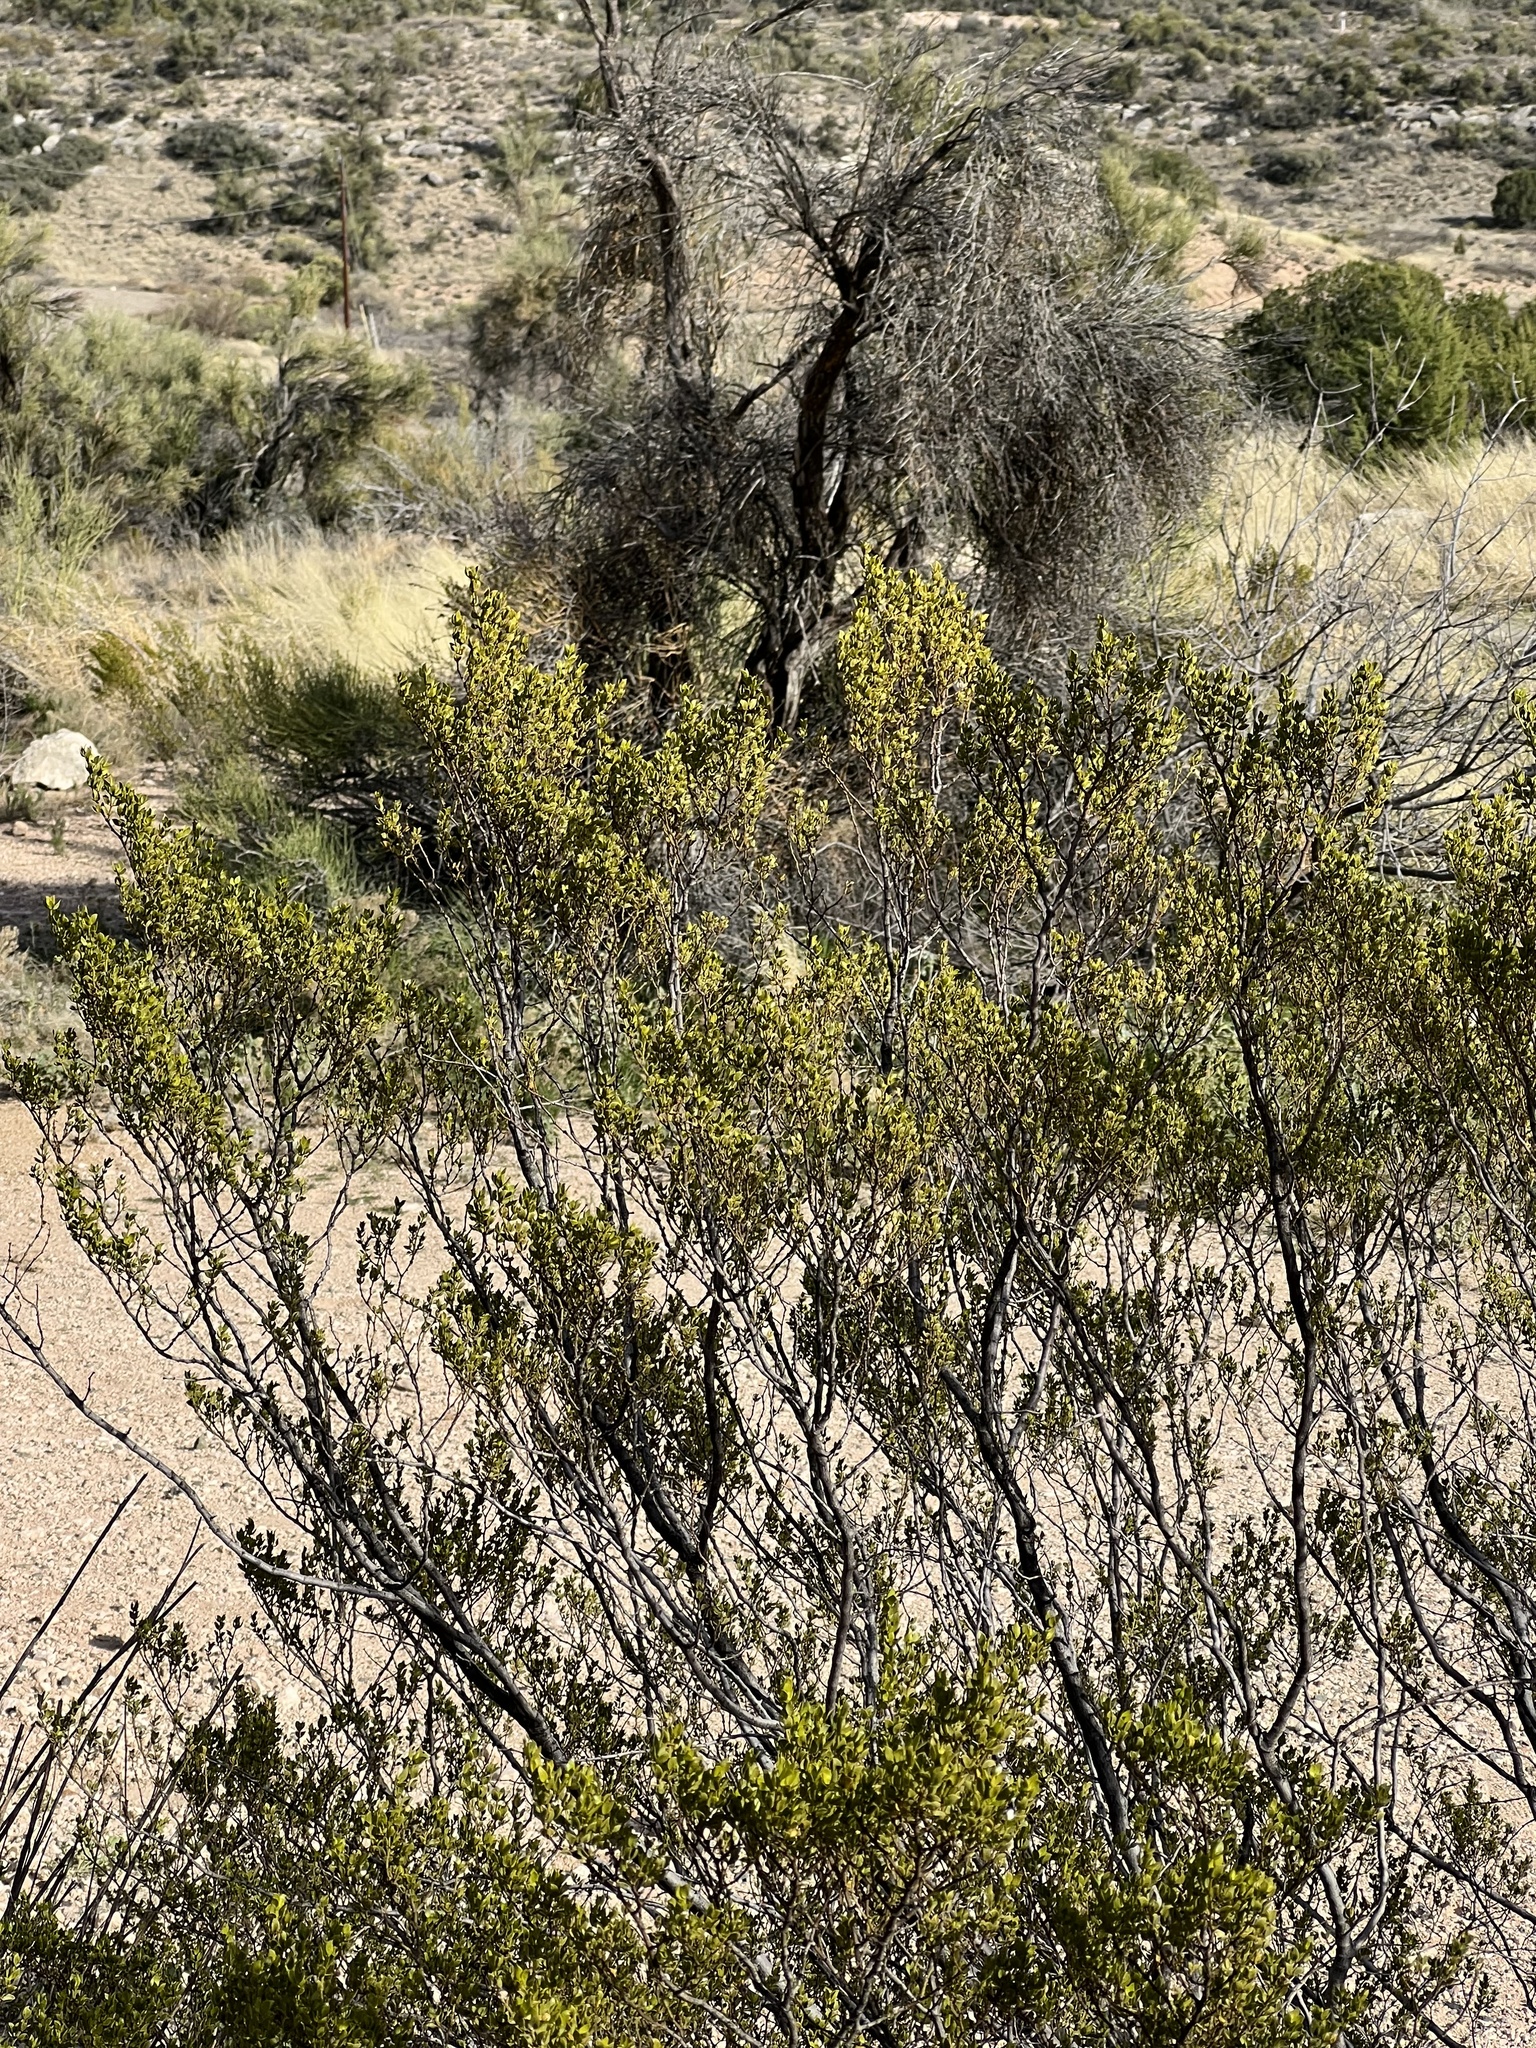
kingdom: Plantae
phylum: Tracheophyta
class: Magnoliopsida
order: Zygophyllales
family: Zygophyllaceae
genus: Larrea
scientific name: Larrea tridentata
